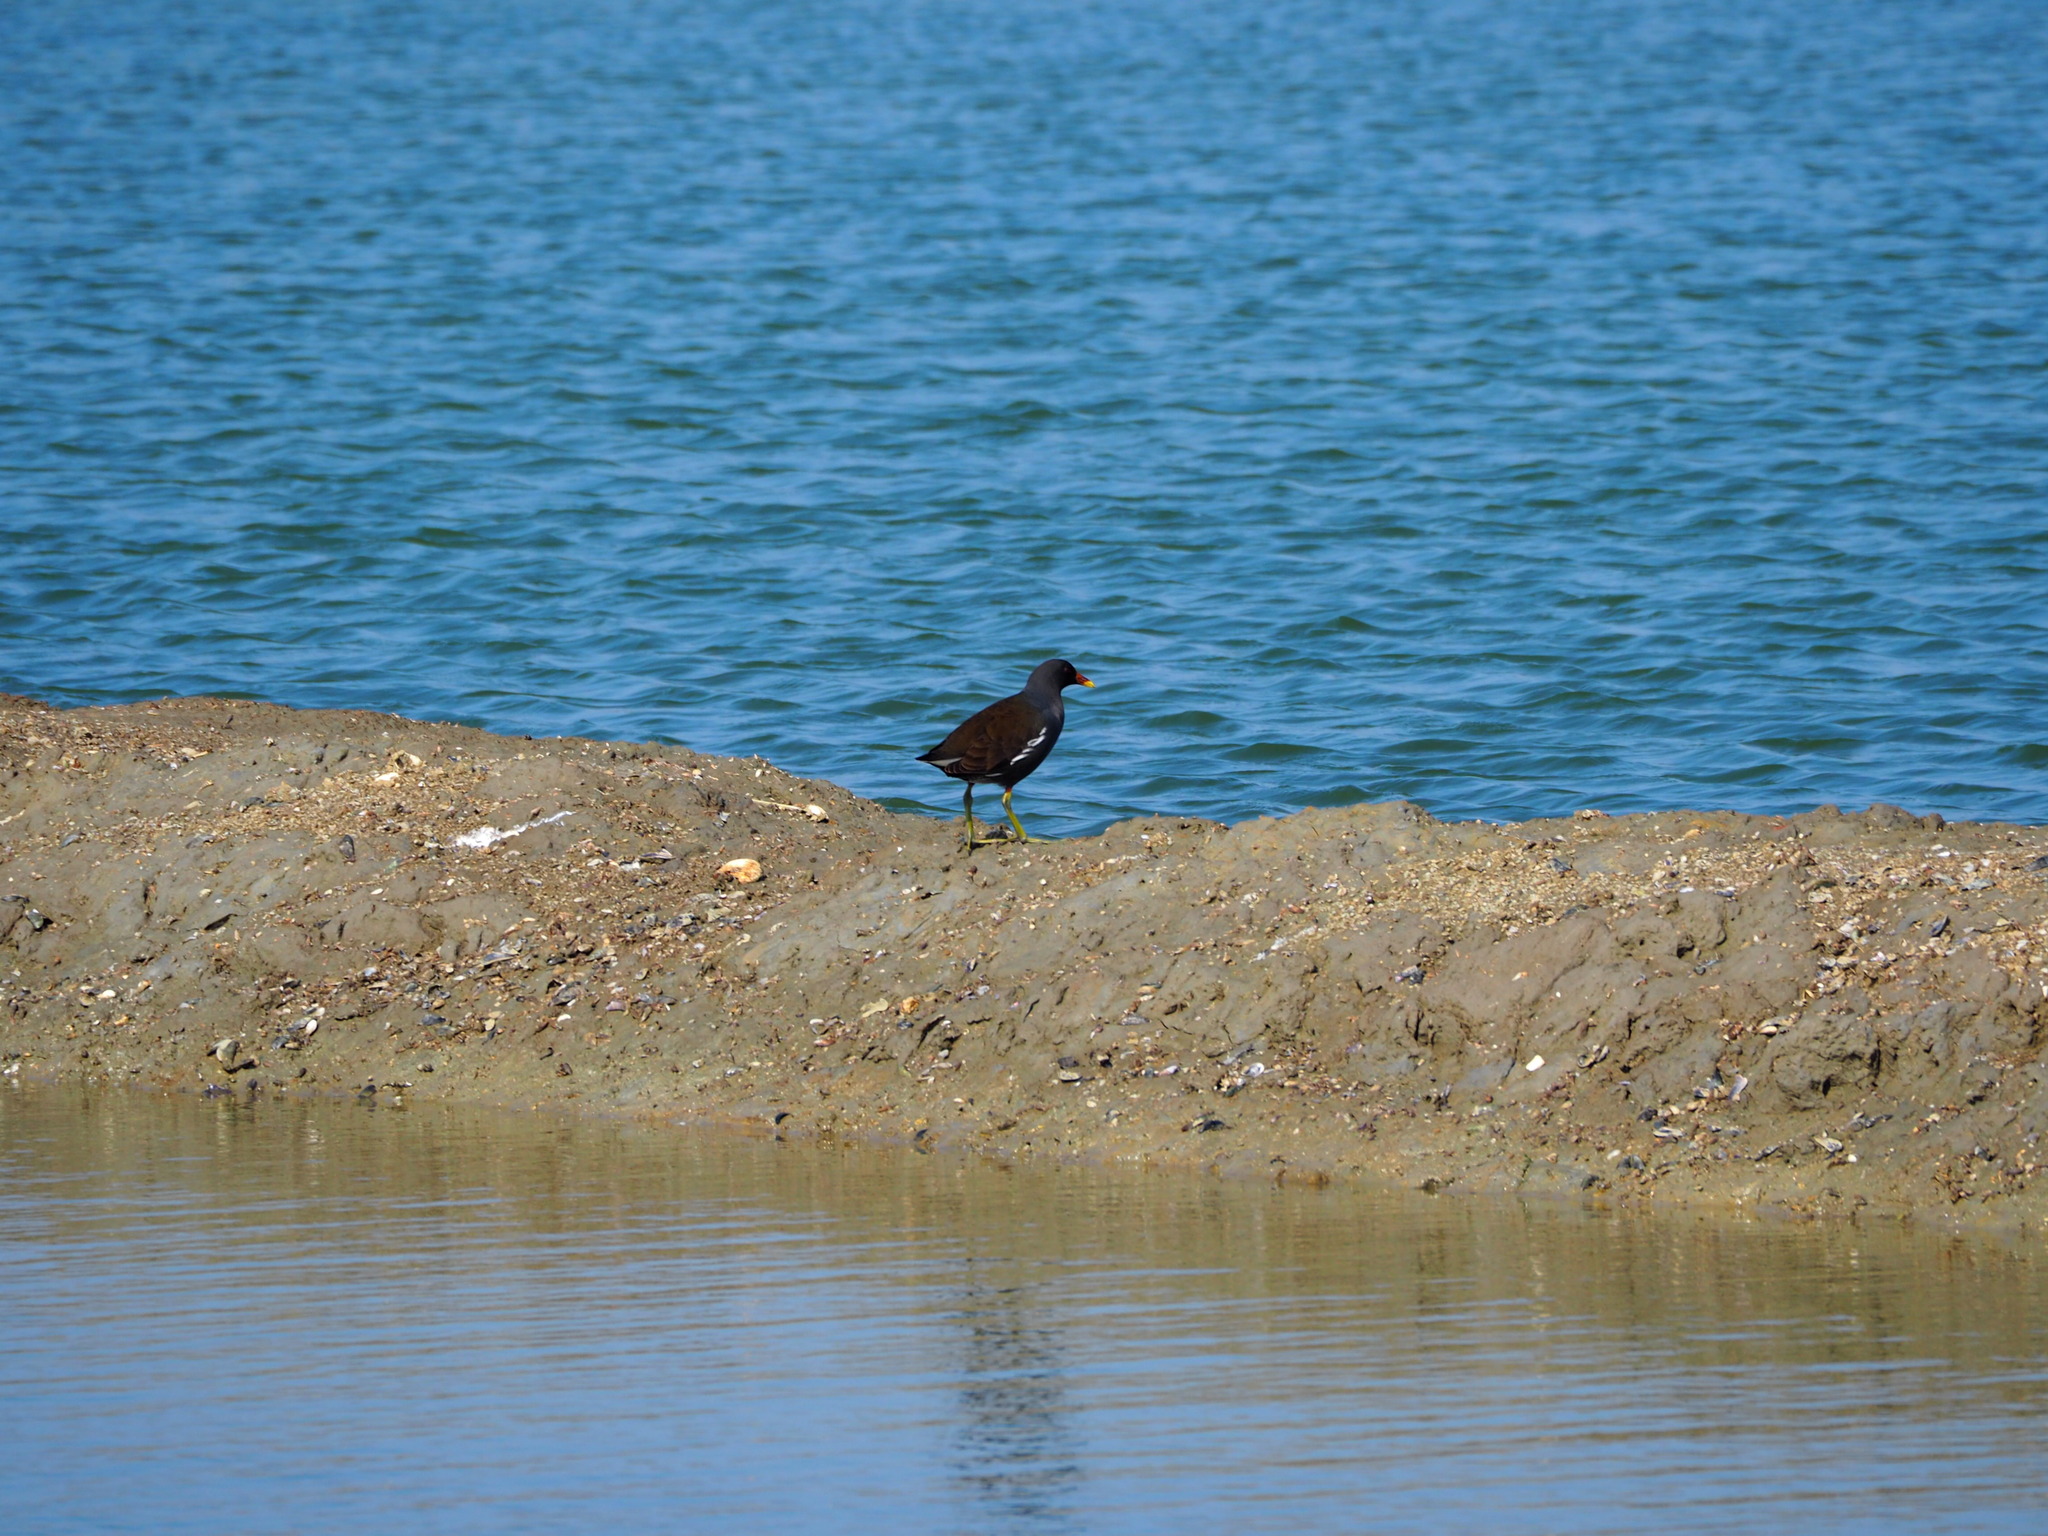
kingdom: Animalia
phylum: Chordata
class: Aves
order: Gruiformes
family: Rallidae
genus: Gallinula
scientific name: Gallinula chloropus
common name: Common moorhen
